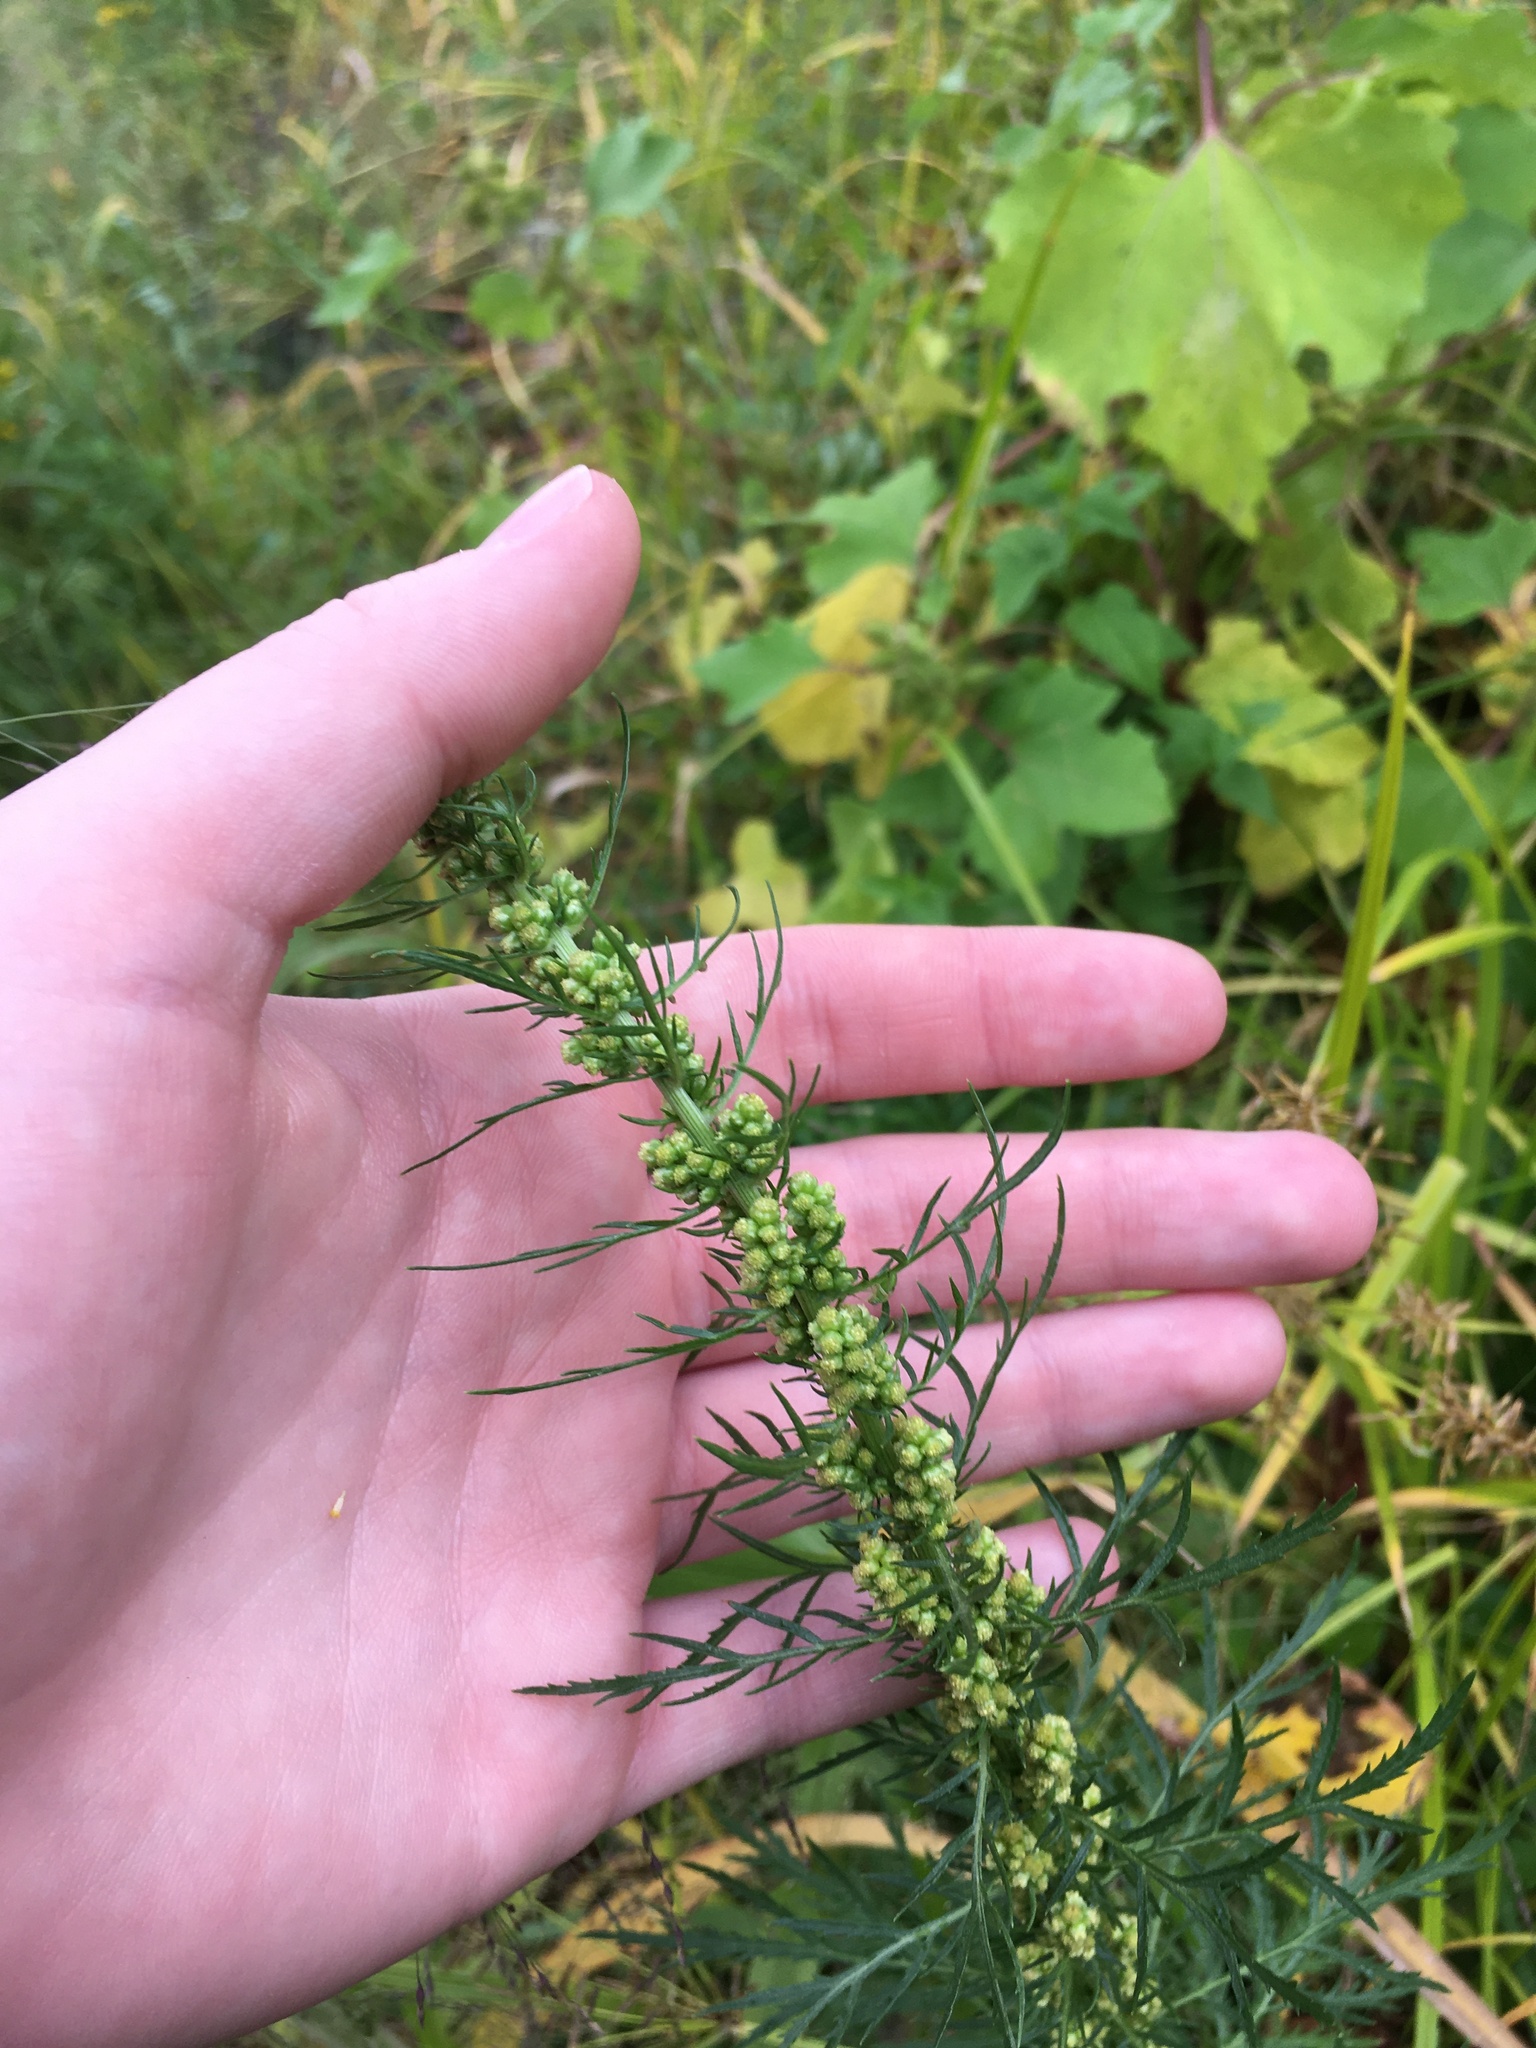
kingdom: Plantae
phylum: Tracheophyta
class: Magnoliopsida
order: Asterales
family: Asteraceae
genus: Artemisia
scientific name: Artemisia biennis
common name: Biennial wormwood
